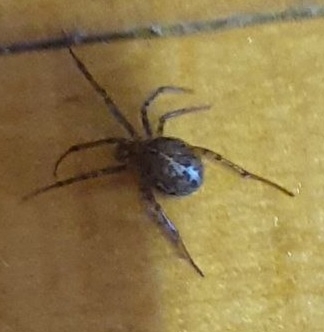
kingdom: Animalia
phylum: Arthropoda
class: Arachnida
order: Araneae
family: Theridiidae
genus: Steatoda
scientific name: Steatoda castanea
